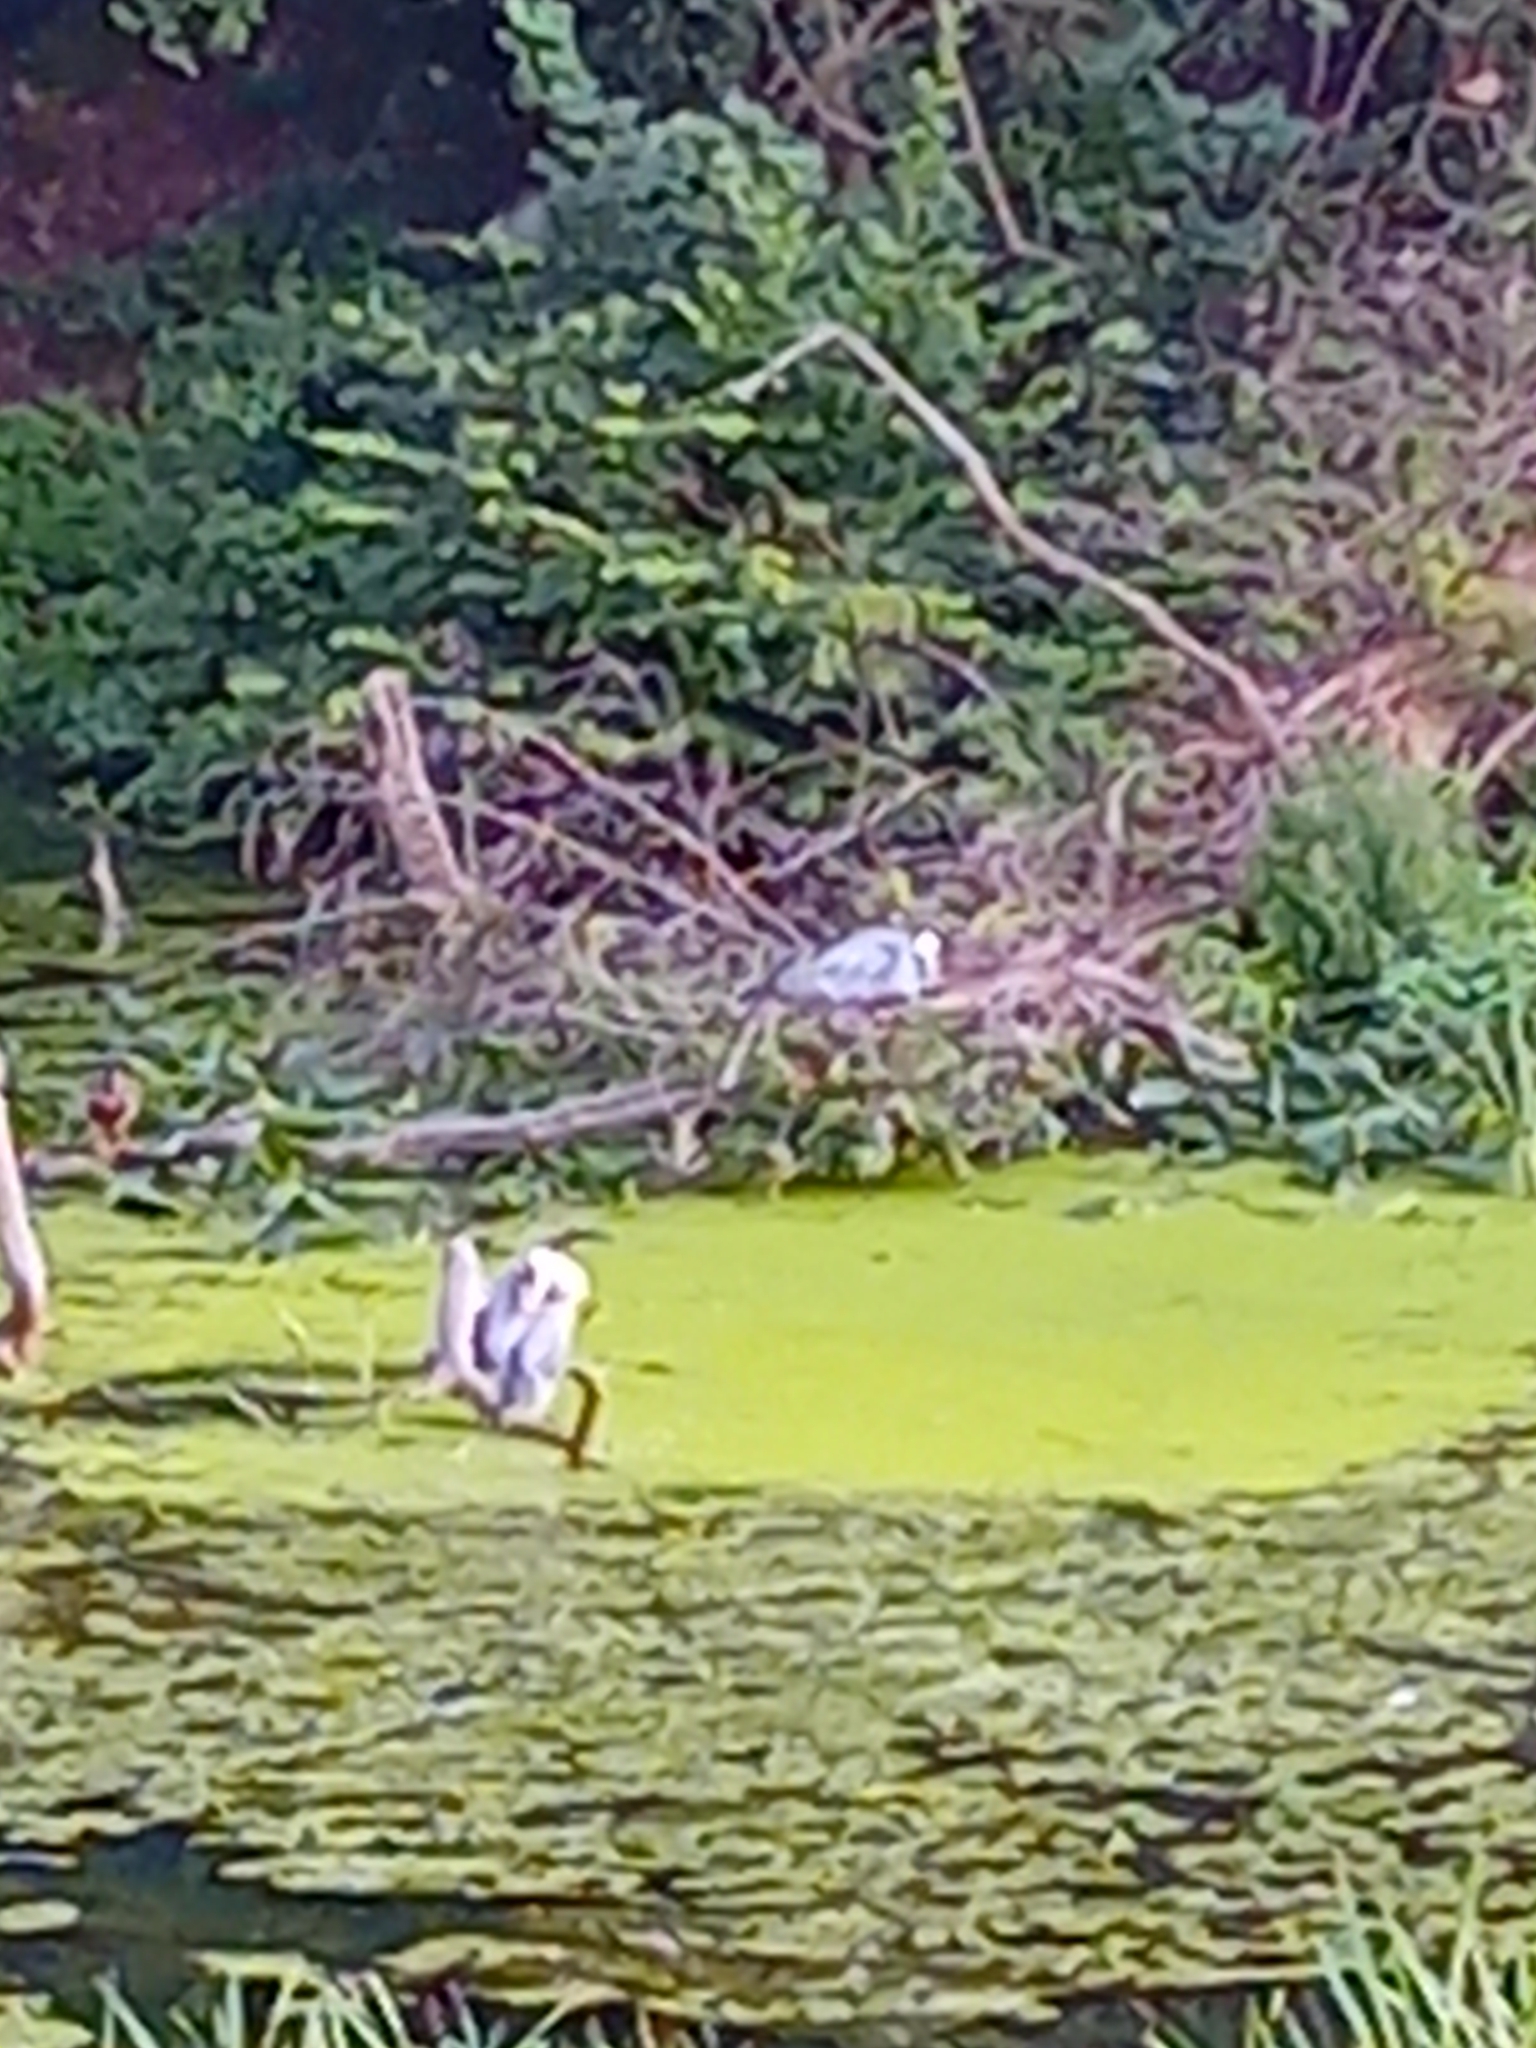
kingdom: Animalia
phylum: Chordata
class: Aves
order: Pelecaniformes
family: Ardeidae
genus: Ardea
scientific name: Ardea cinerea
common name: Grey heron
